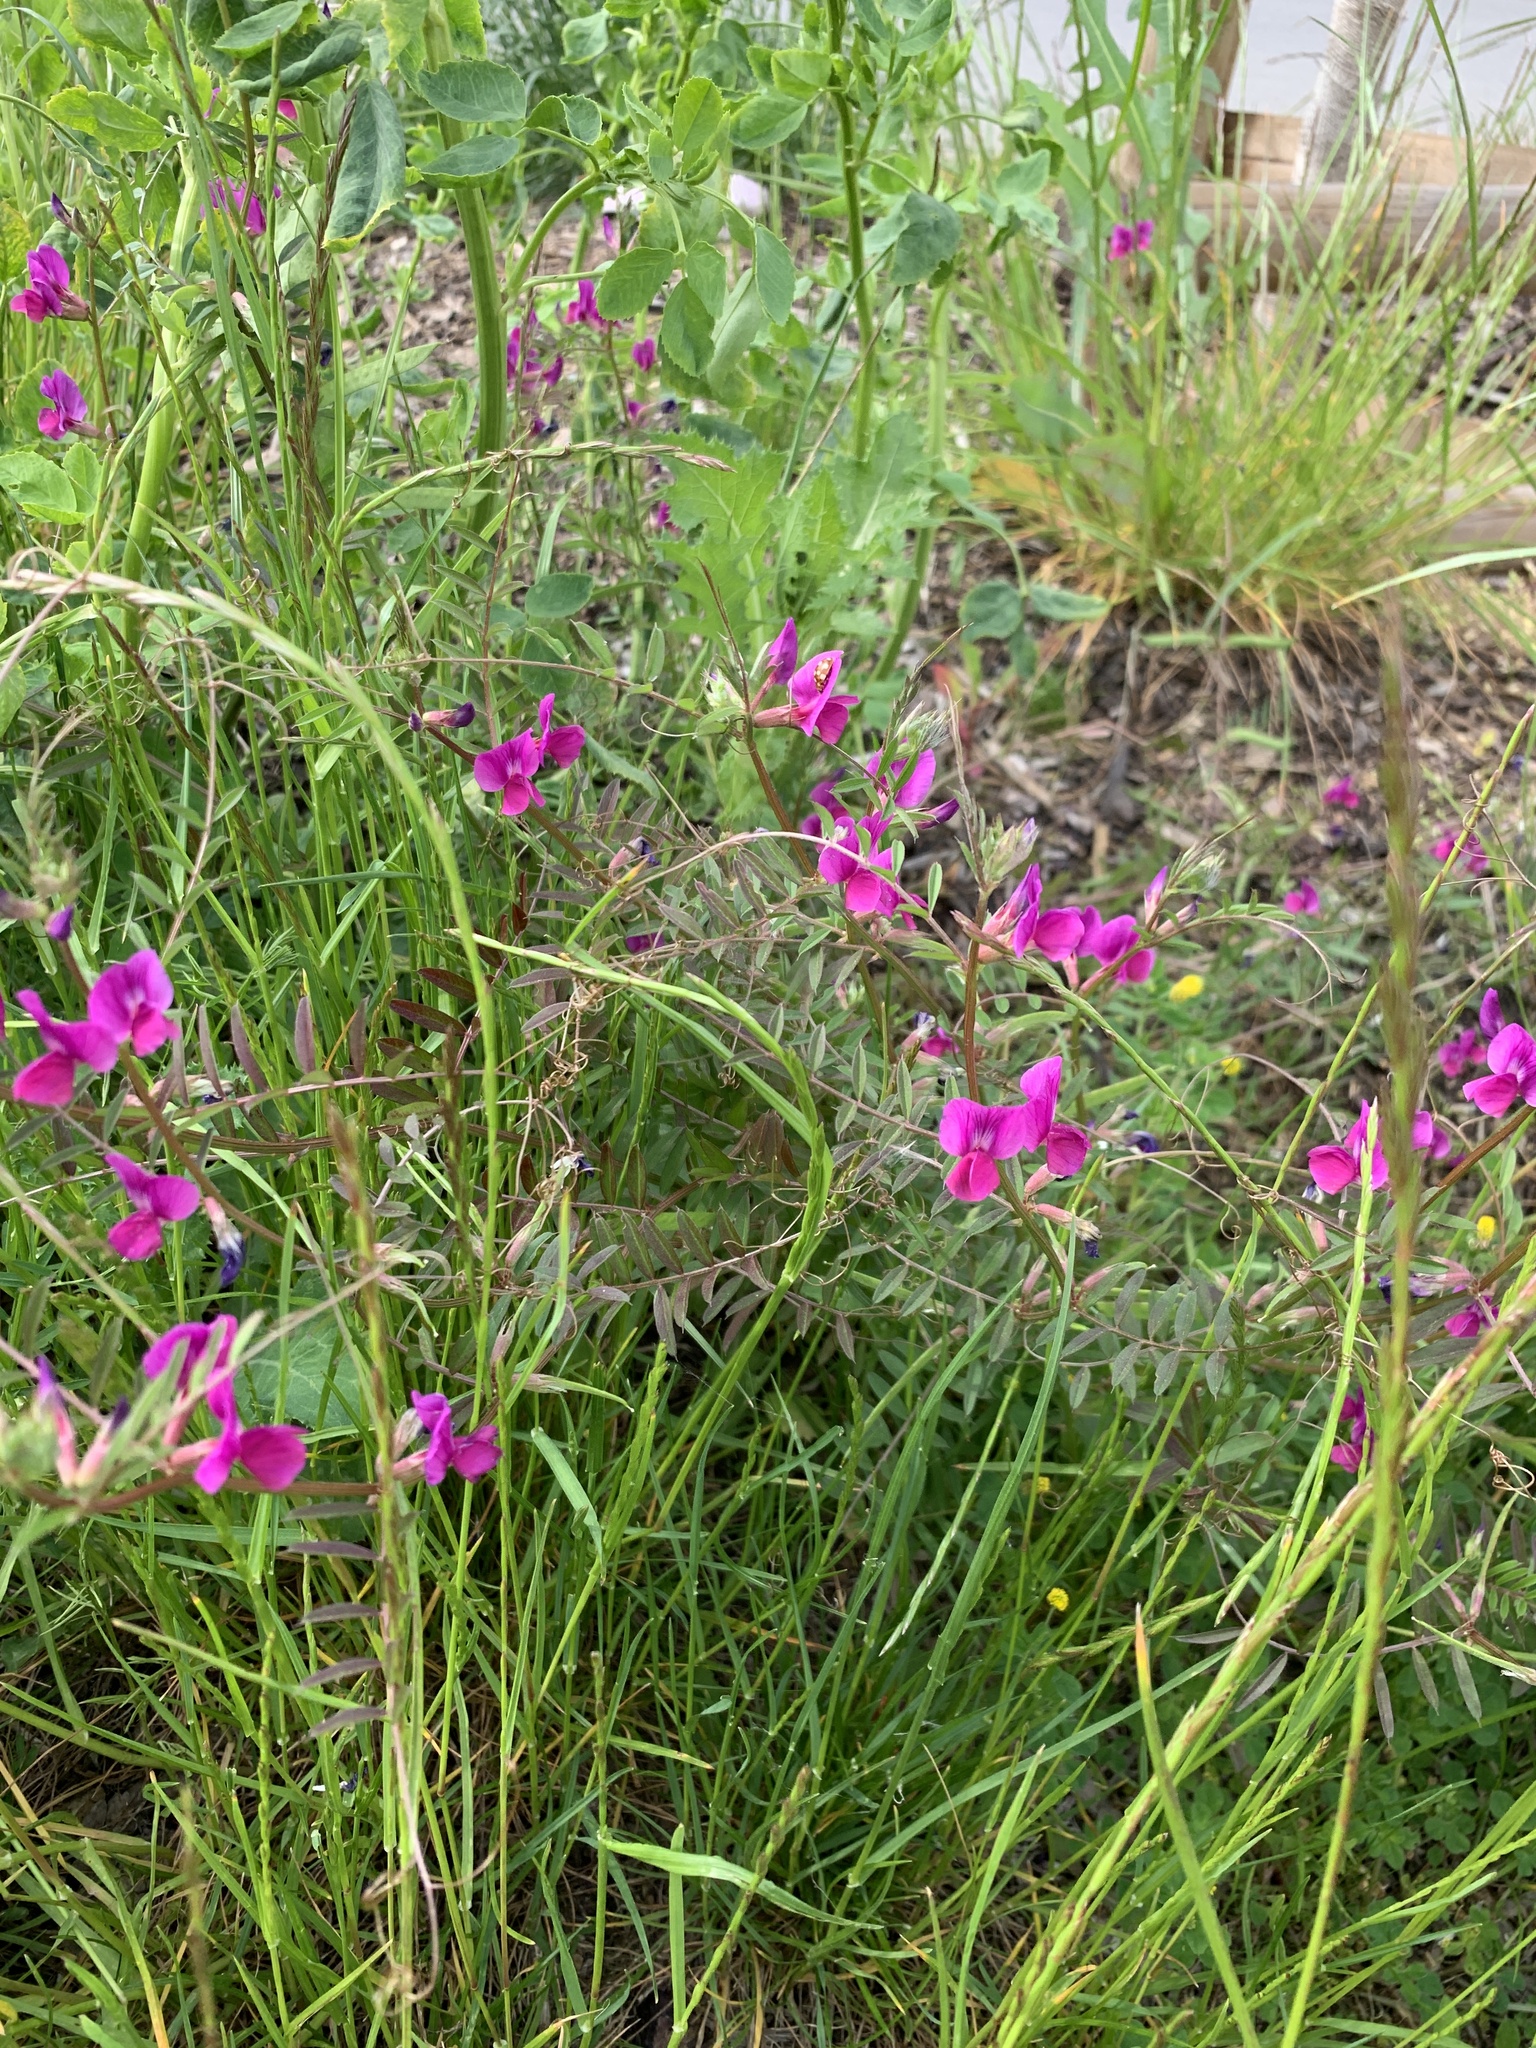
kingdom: Plantae
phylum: Tracheophyta
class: Magnoliopsida
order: Fabales
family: Fabaceae
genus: Vicia
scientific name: Vicia sativa
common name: Garden vetch
